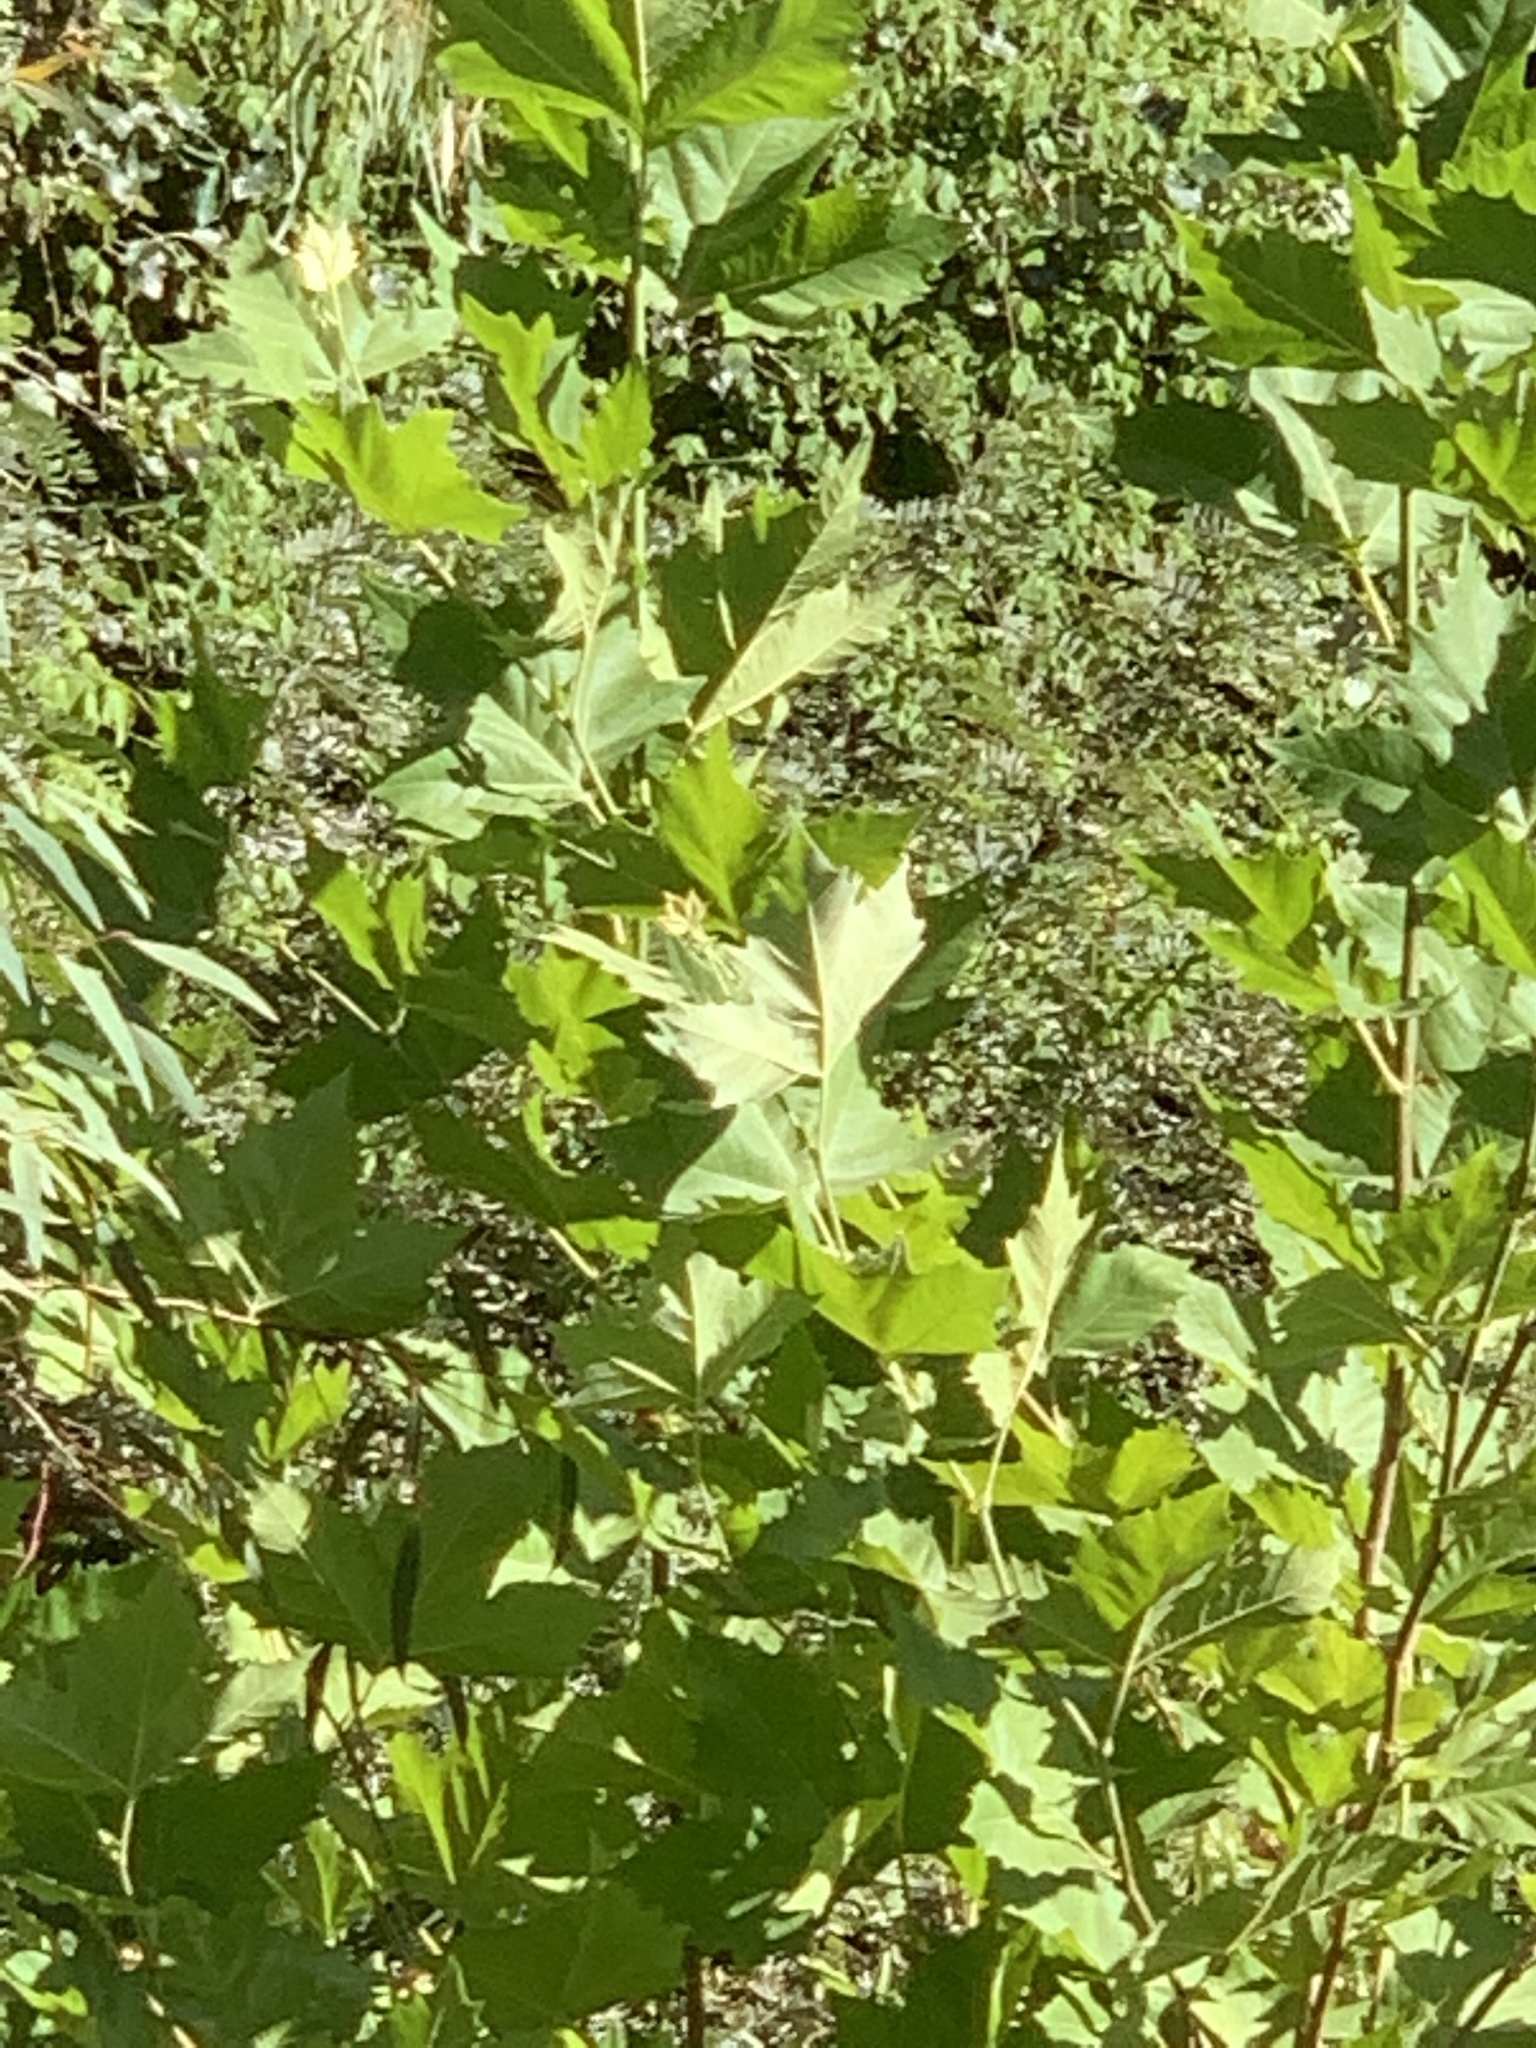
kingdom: Plantae
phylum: Tracheophyta
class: Magnoliopsida
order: Proteales
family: Platanaceae
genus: Platanus
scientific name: Platanus hispanica
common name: London plane
